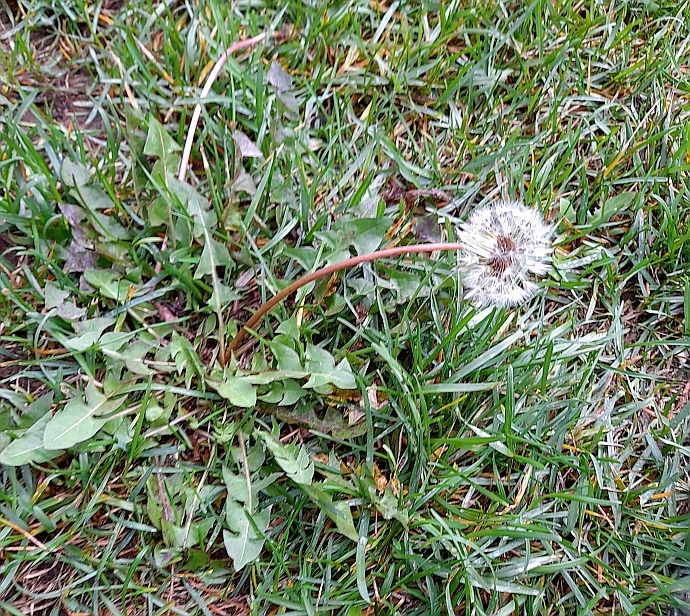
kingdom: Plantae
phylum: Tracheophyta
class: Magnoliopsida
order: Asterales
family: Asteraceae
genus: Taraxacum
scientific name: Taraxacum officinale
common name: Common dandelion
